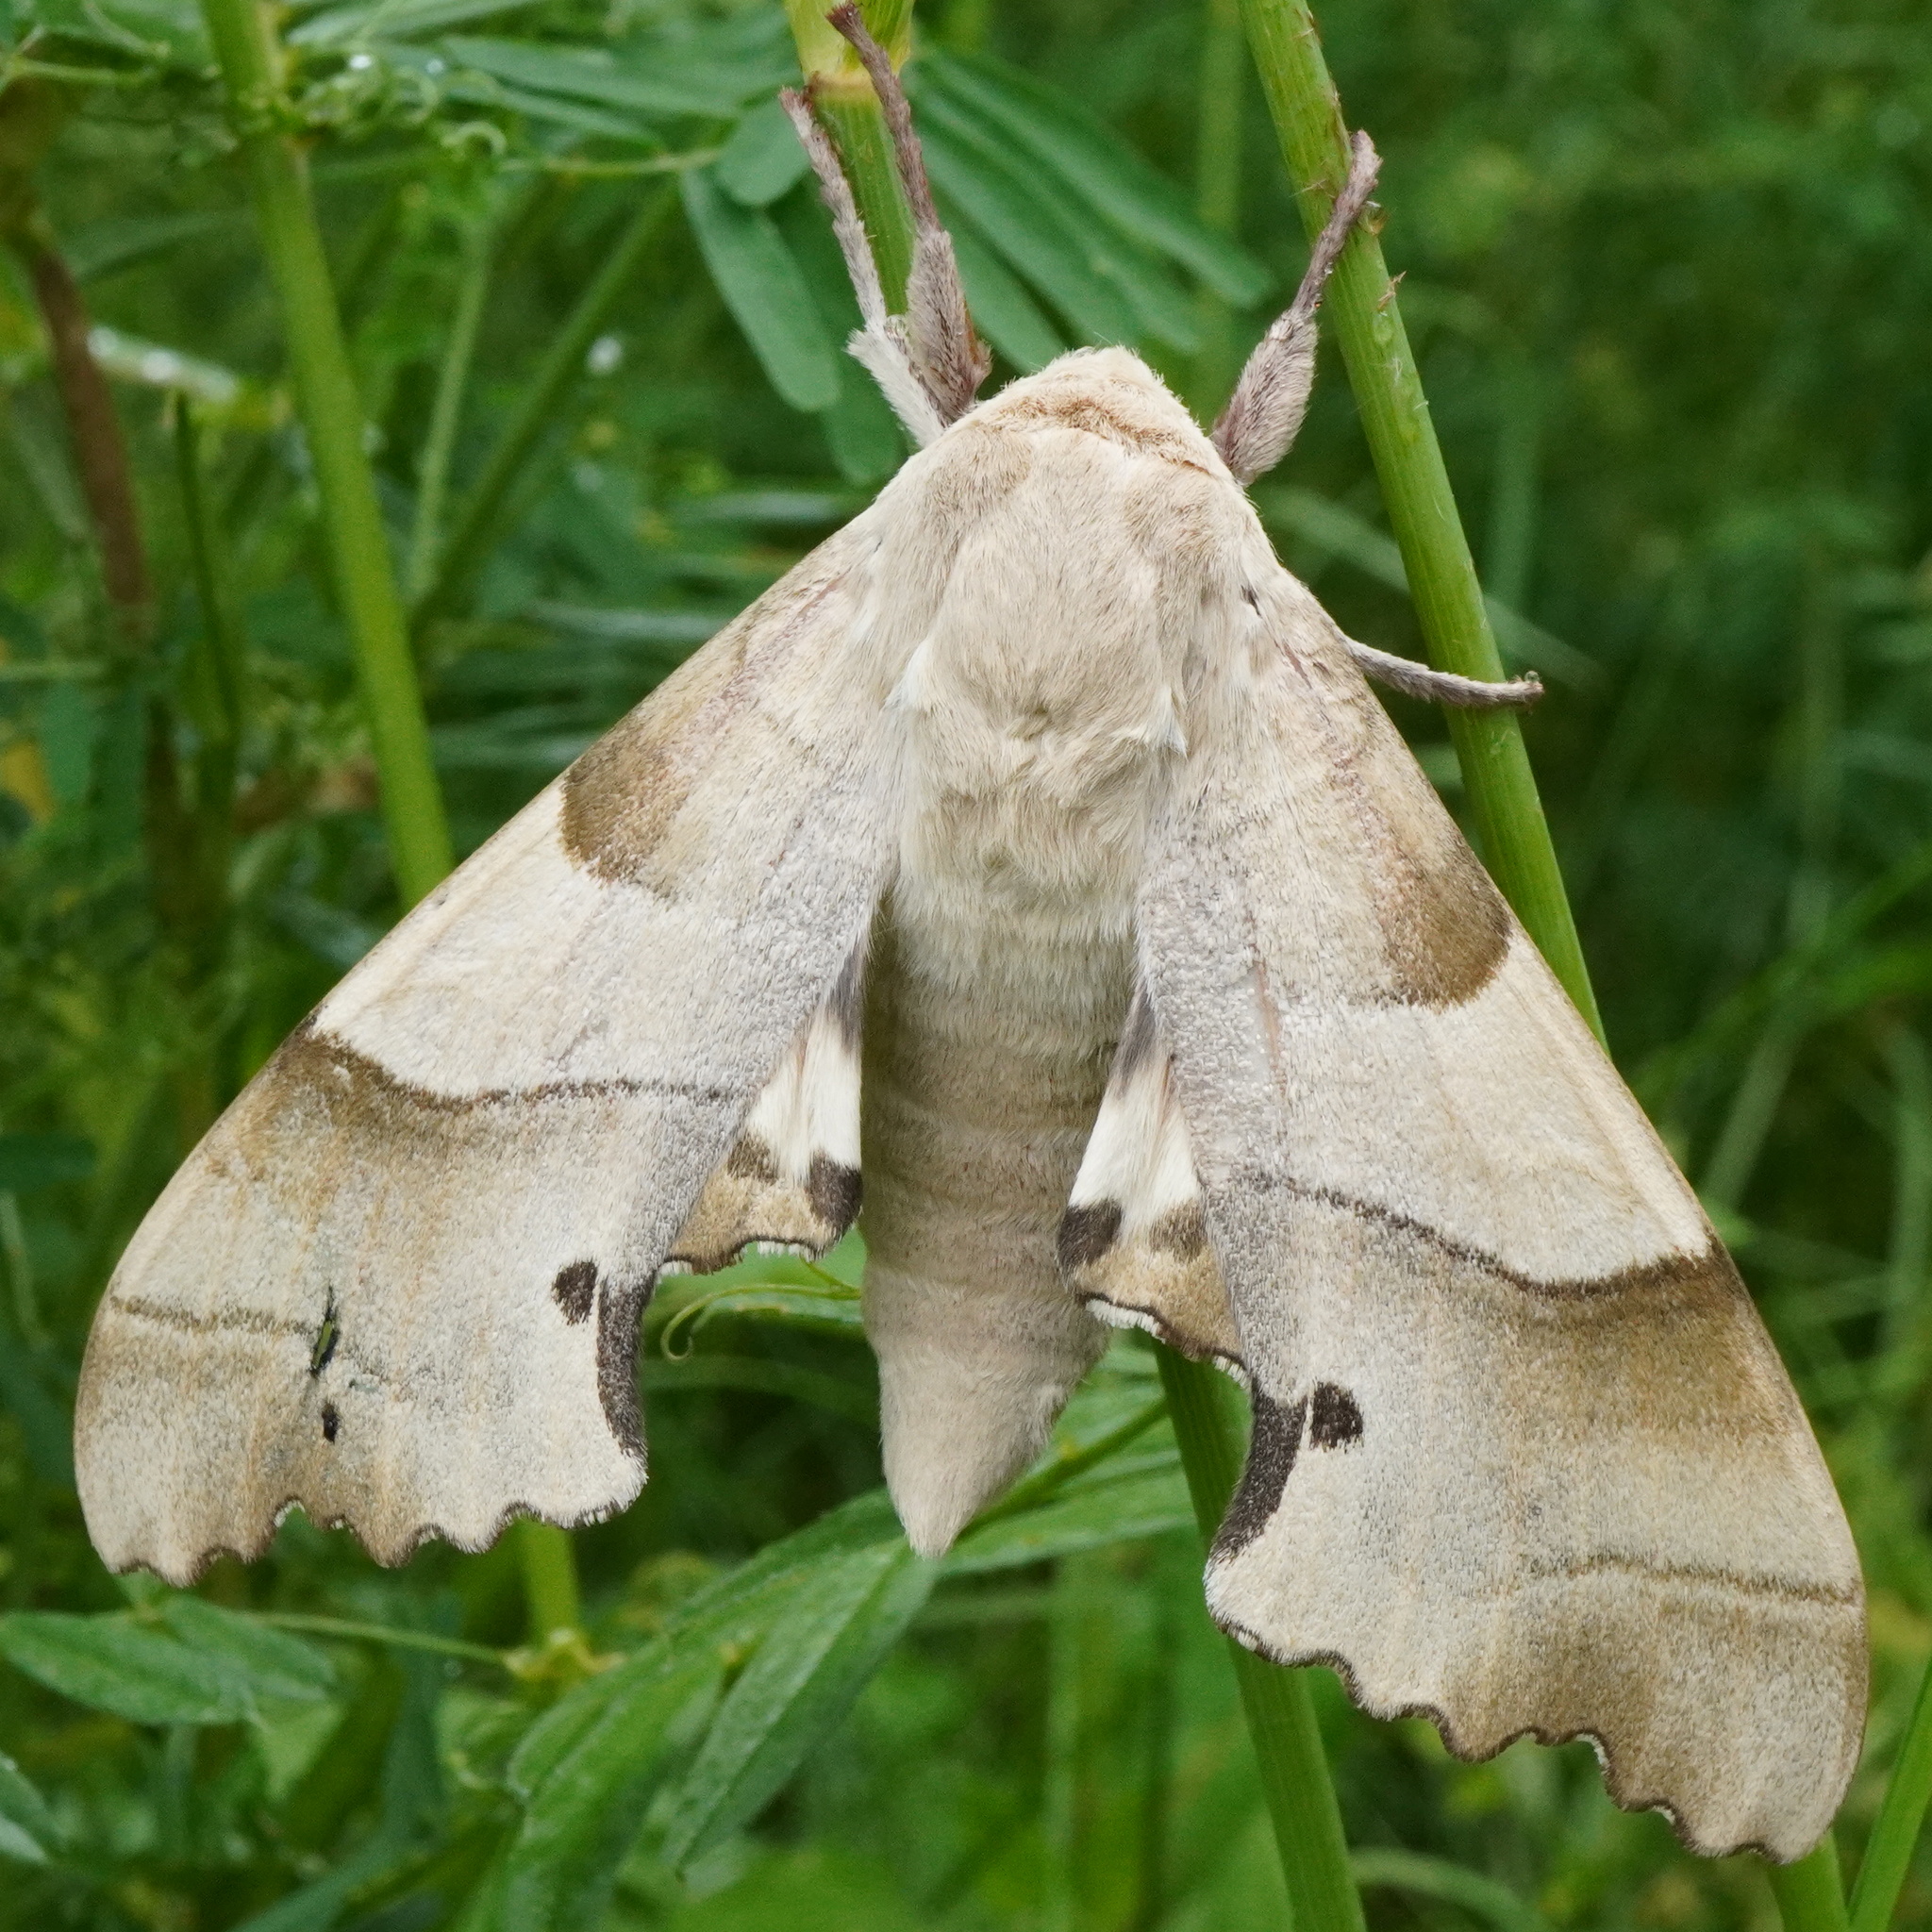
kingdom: Animalia
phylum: Arthropoda
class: Insecta
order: Lepidoptera
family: Sphingidae
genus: Marumba
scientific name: Marumba quercus
